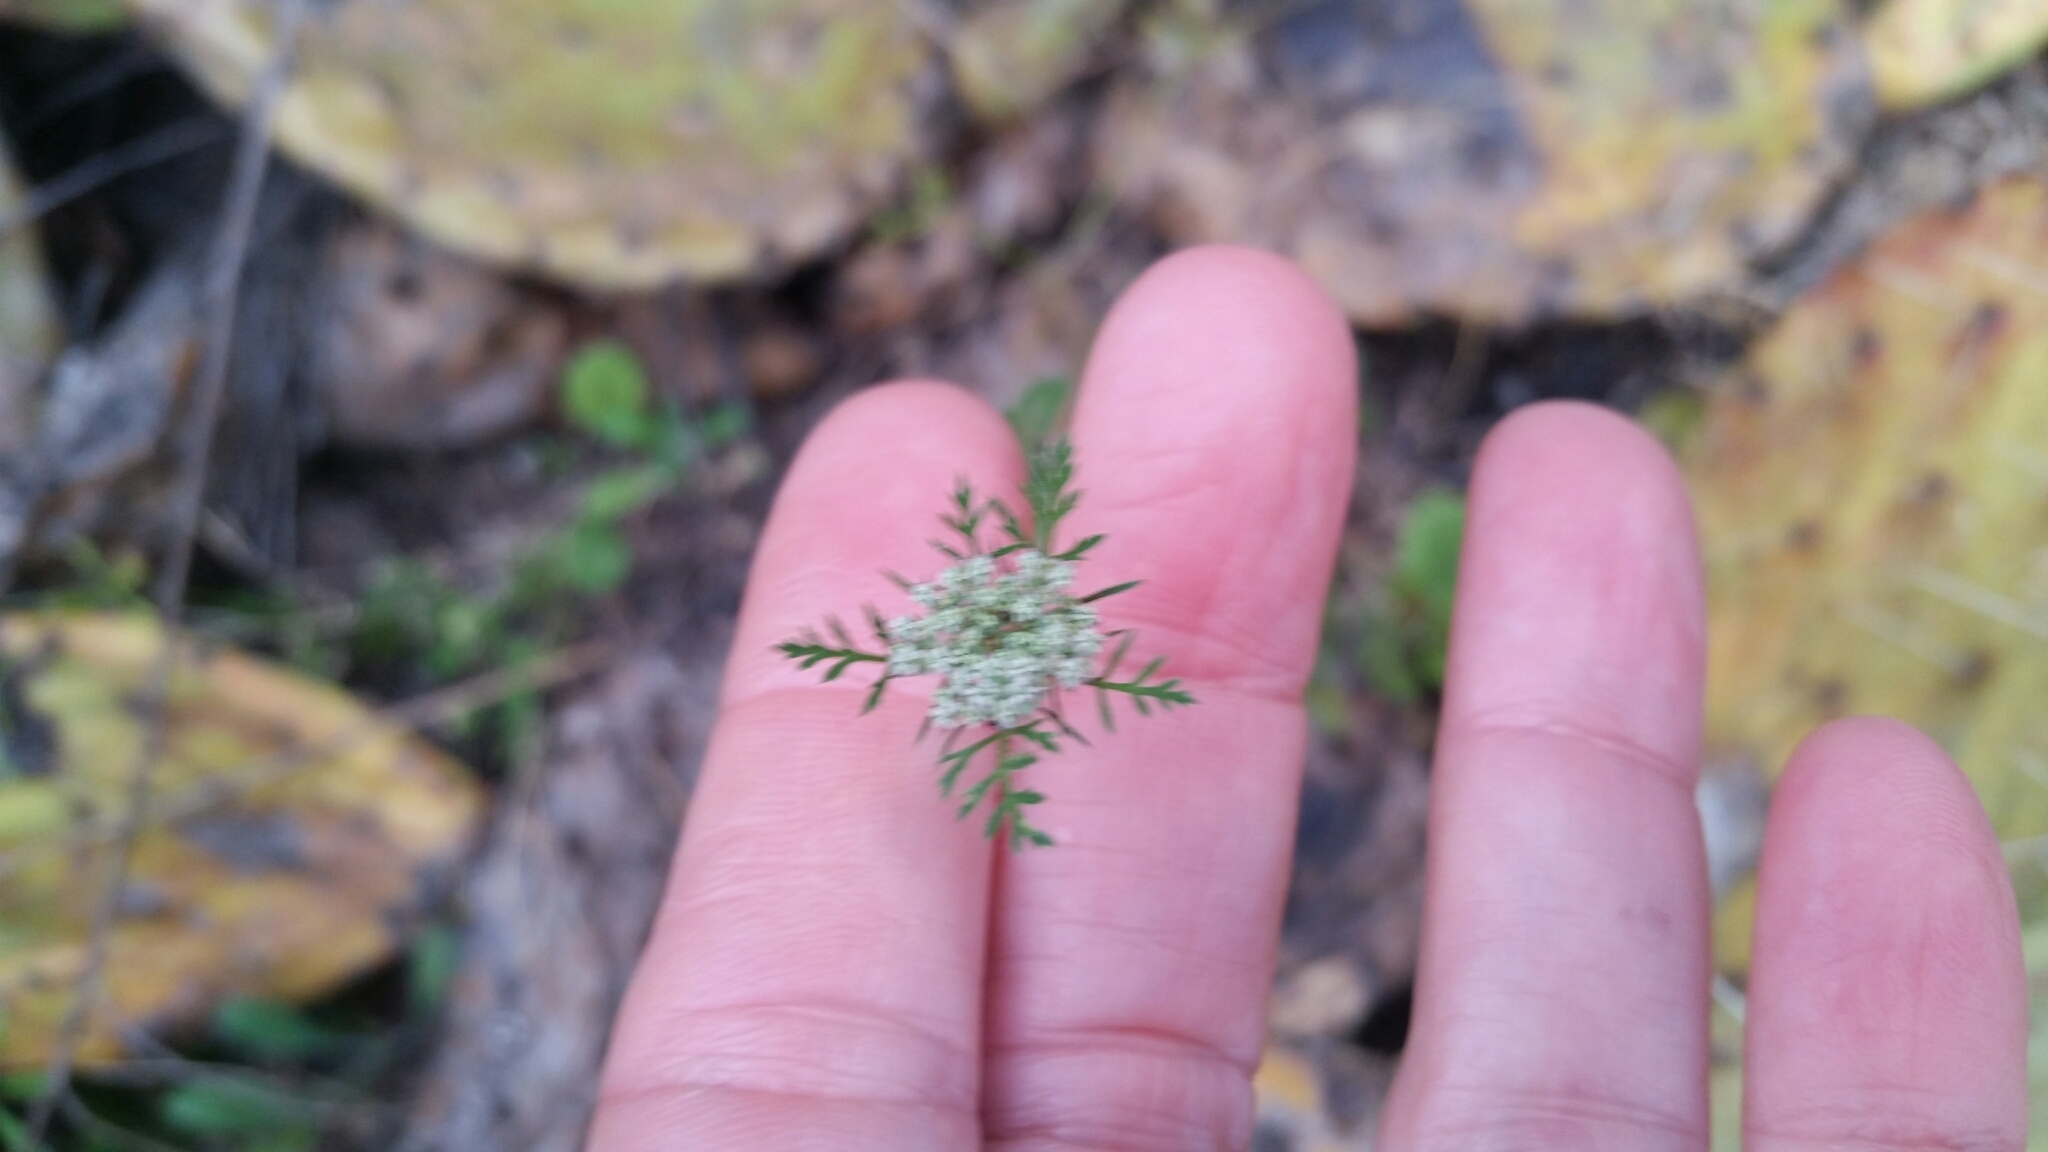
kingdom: Plantae
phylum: Tracheophyta
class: Magnoliopsida
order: Apiales
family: Apiaceae
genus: Daucus
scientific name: Daucus pusillus
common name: Southwest wild carrot
